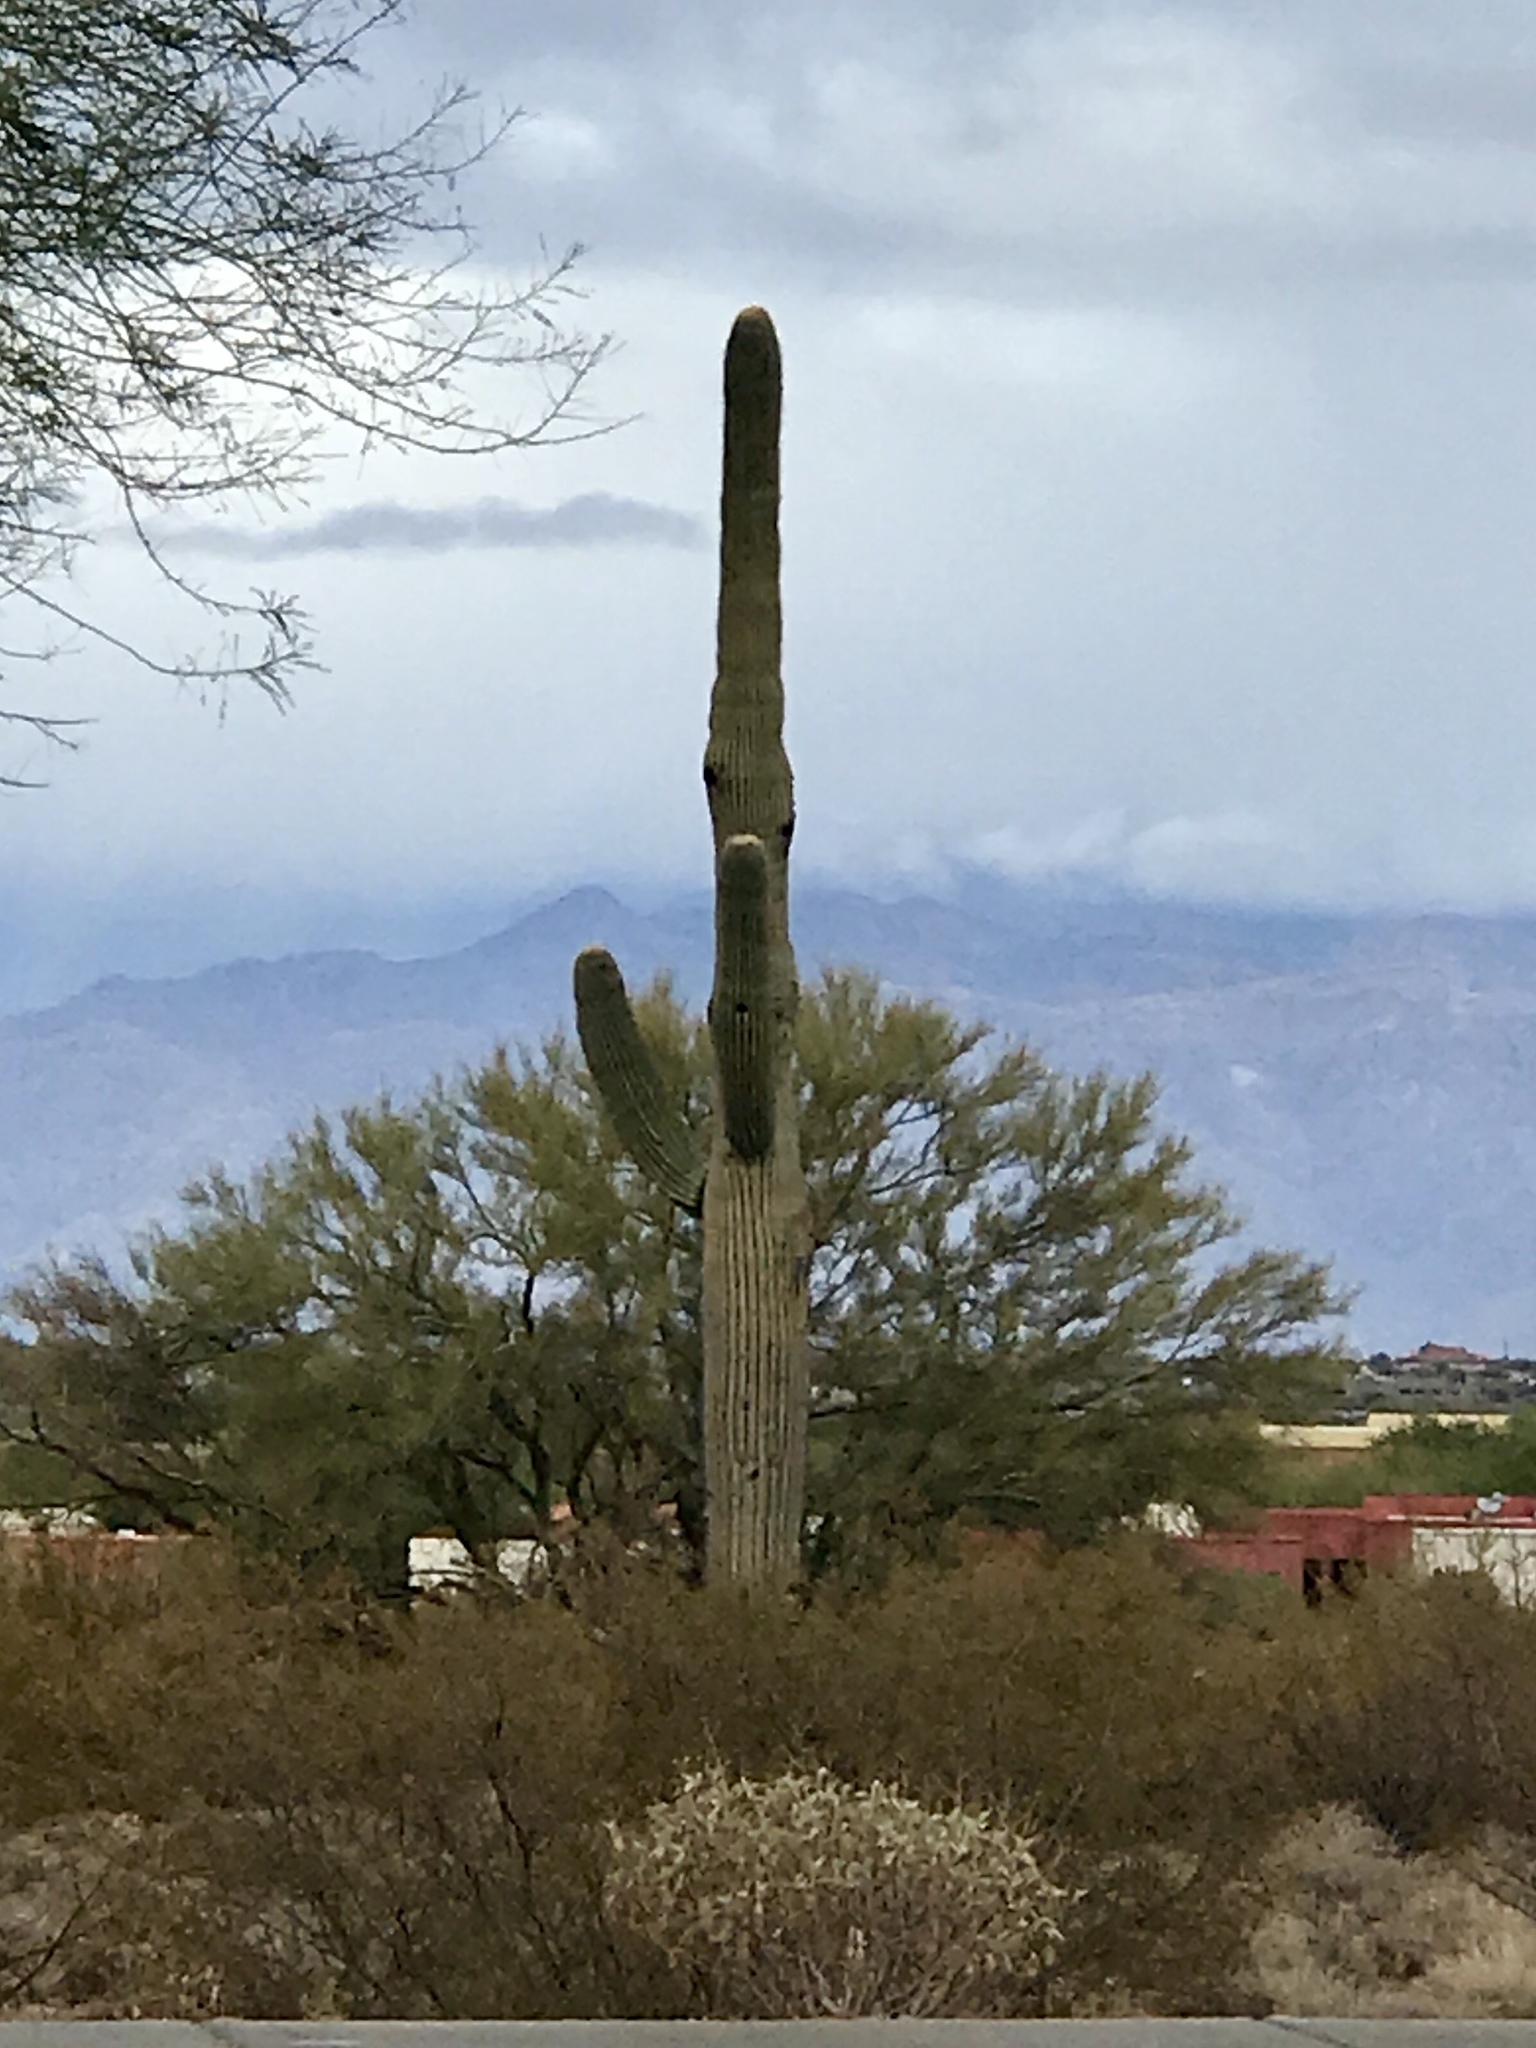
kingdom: Plantae
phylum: Tracheophyta
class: Magnoliopsida
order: Caryophyllales
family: Cactaceae
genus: Carnegiea
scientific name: Carnegiea gigantea
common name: Saguaro
